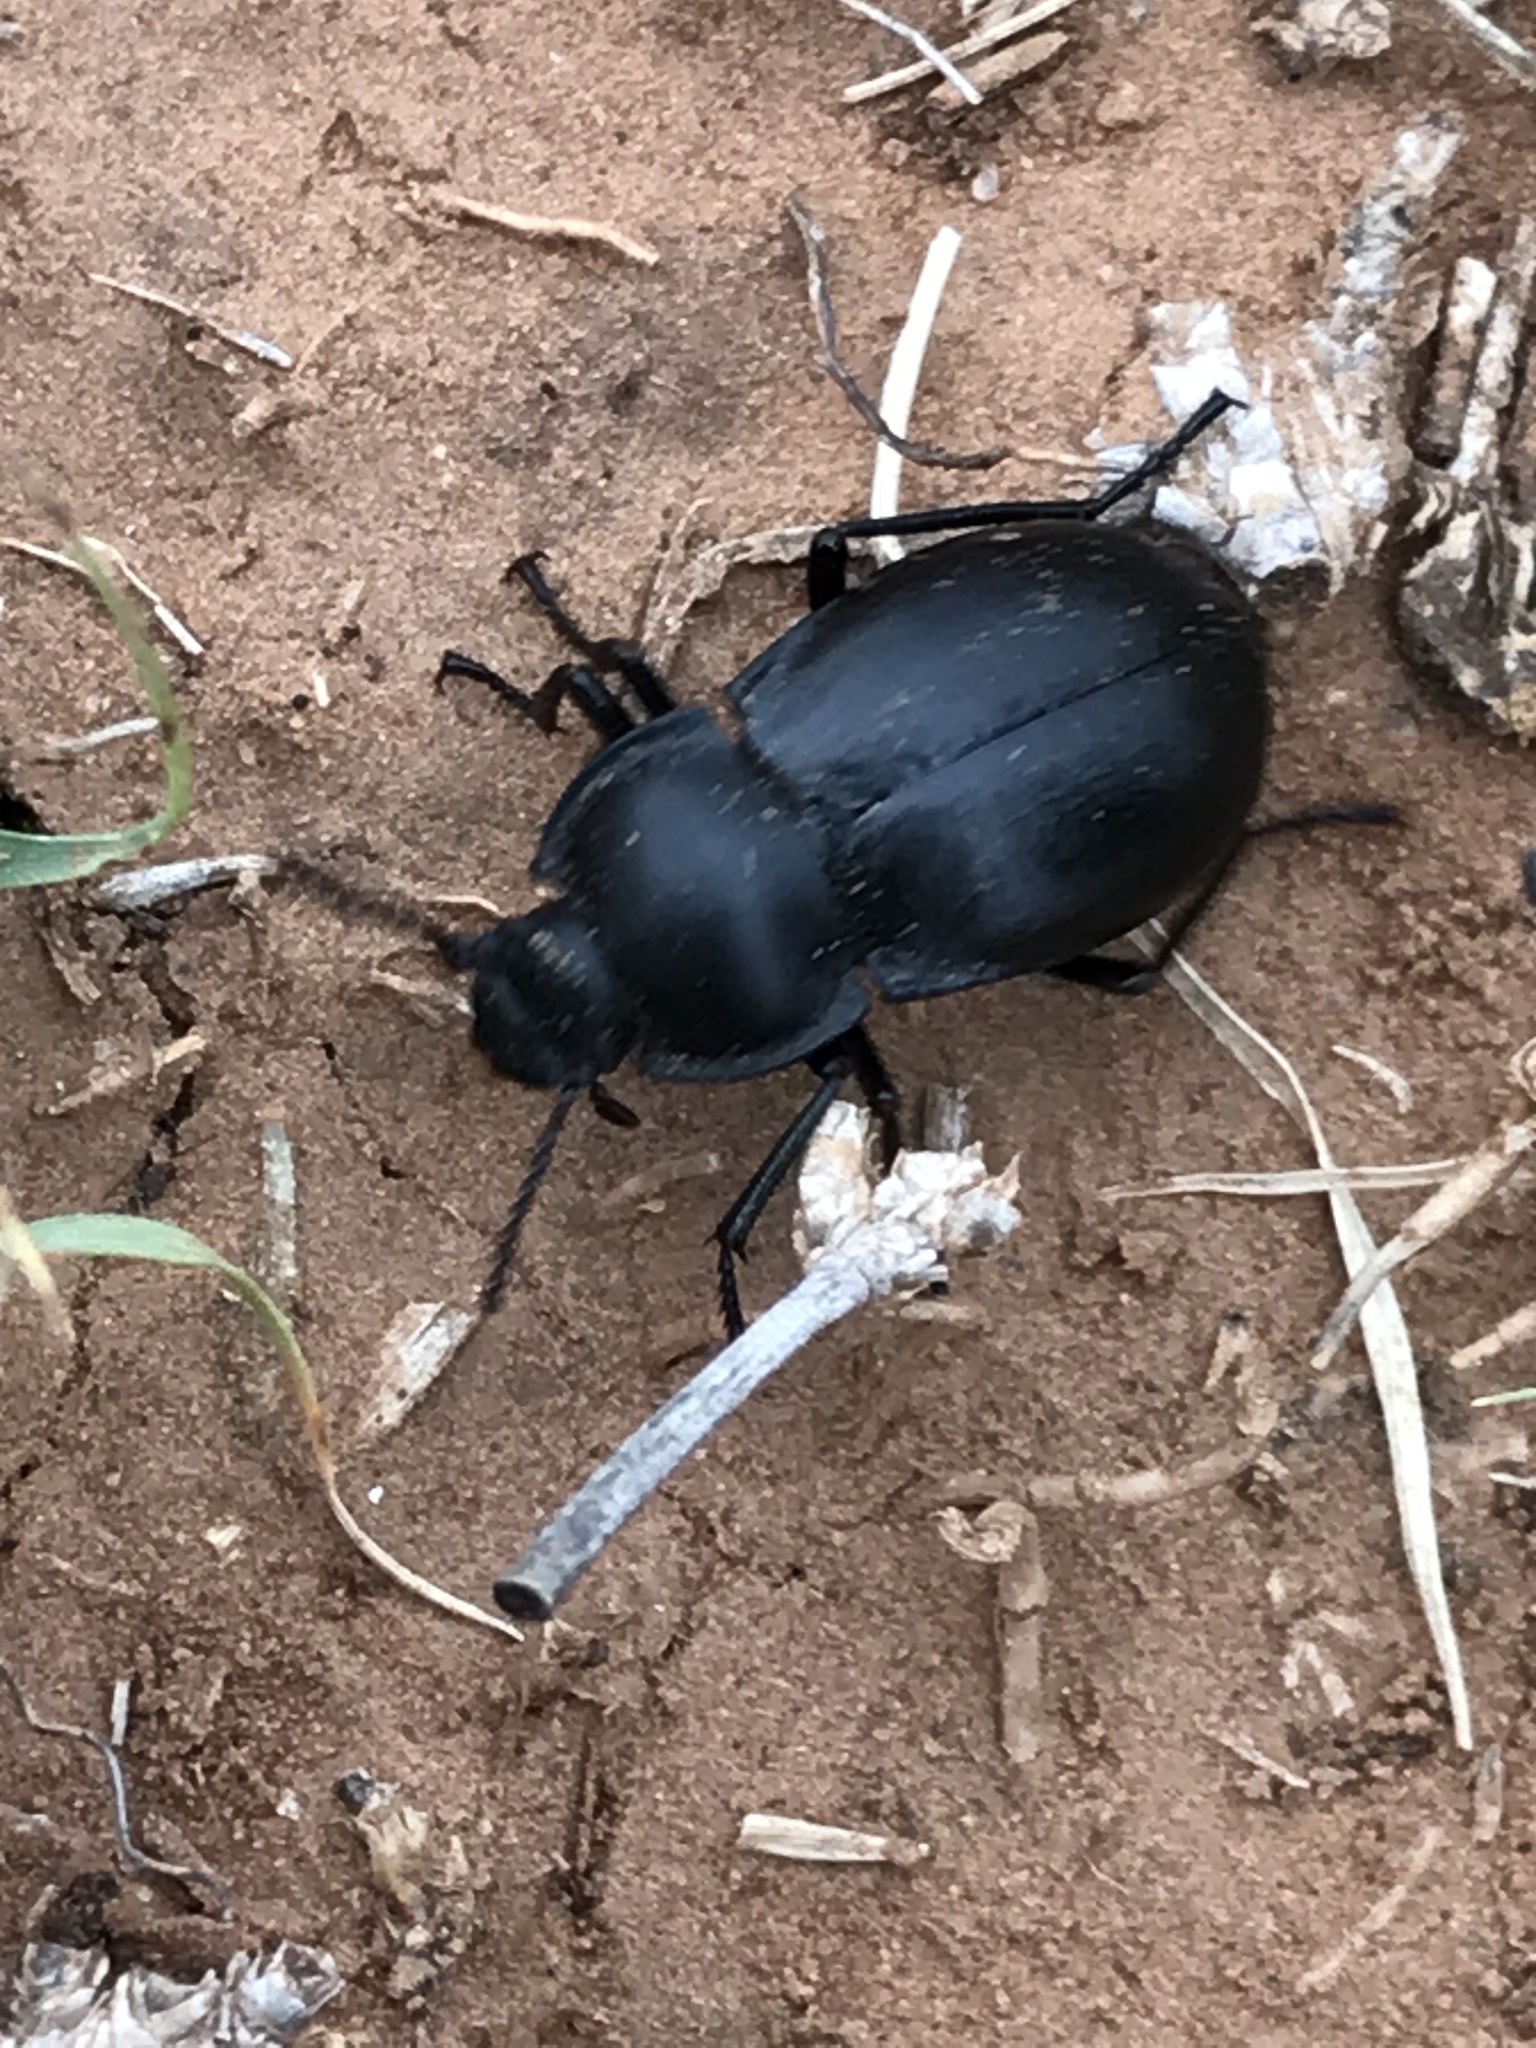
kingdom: Animalia
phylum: Arthropoda
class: Insecta
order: Coleoptera
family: Tenebrionidae
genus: Stenomorpha
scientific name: Stenomorpha polita
